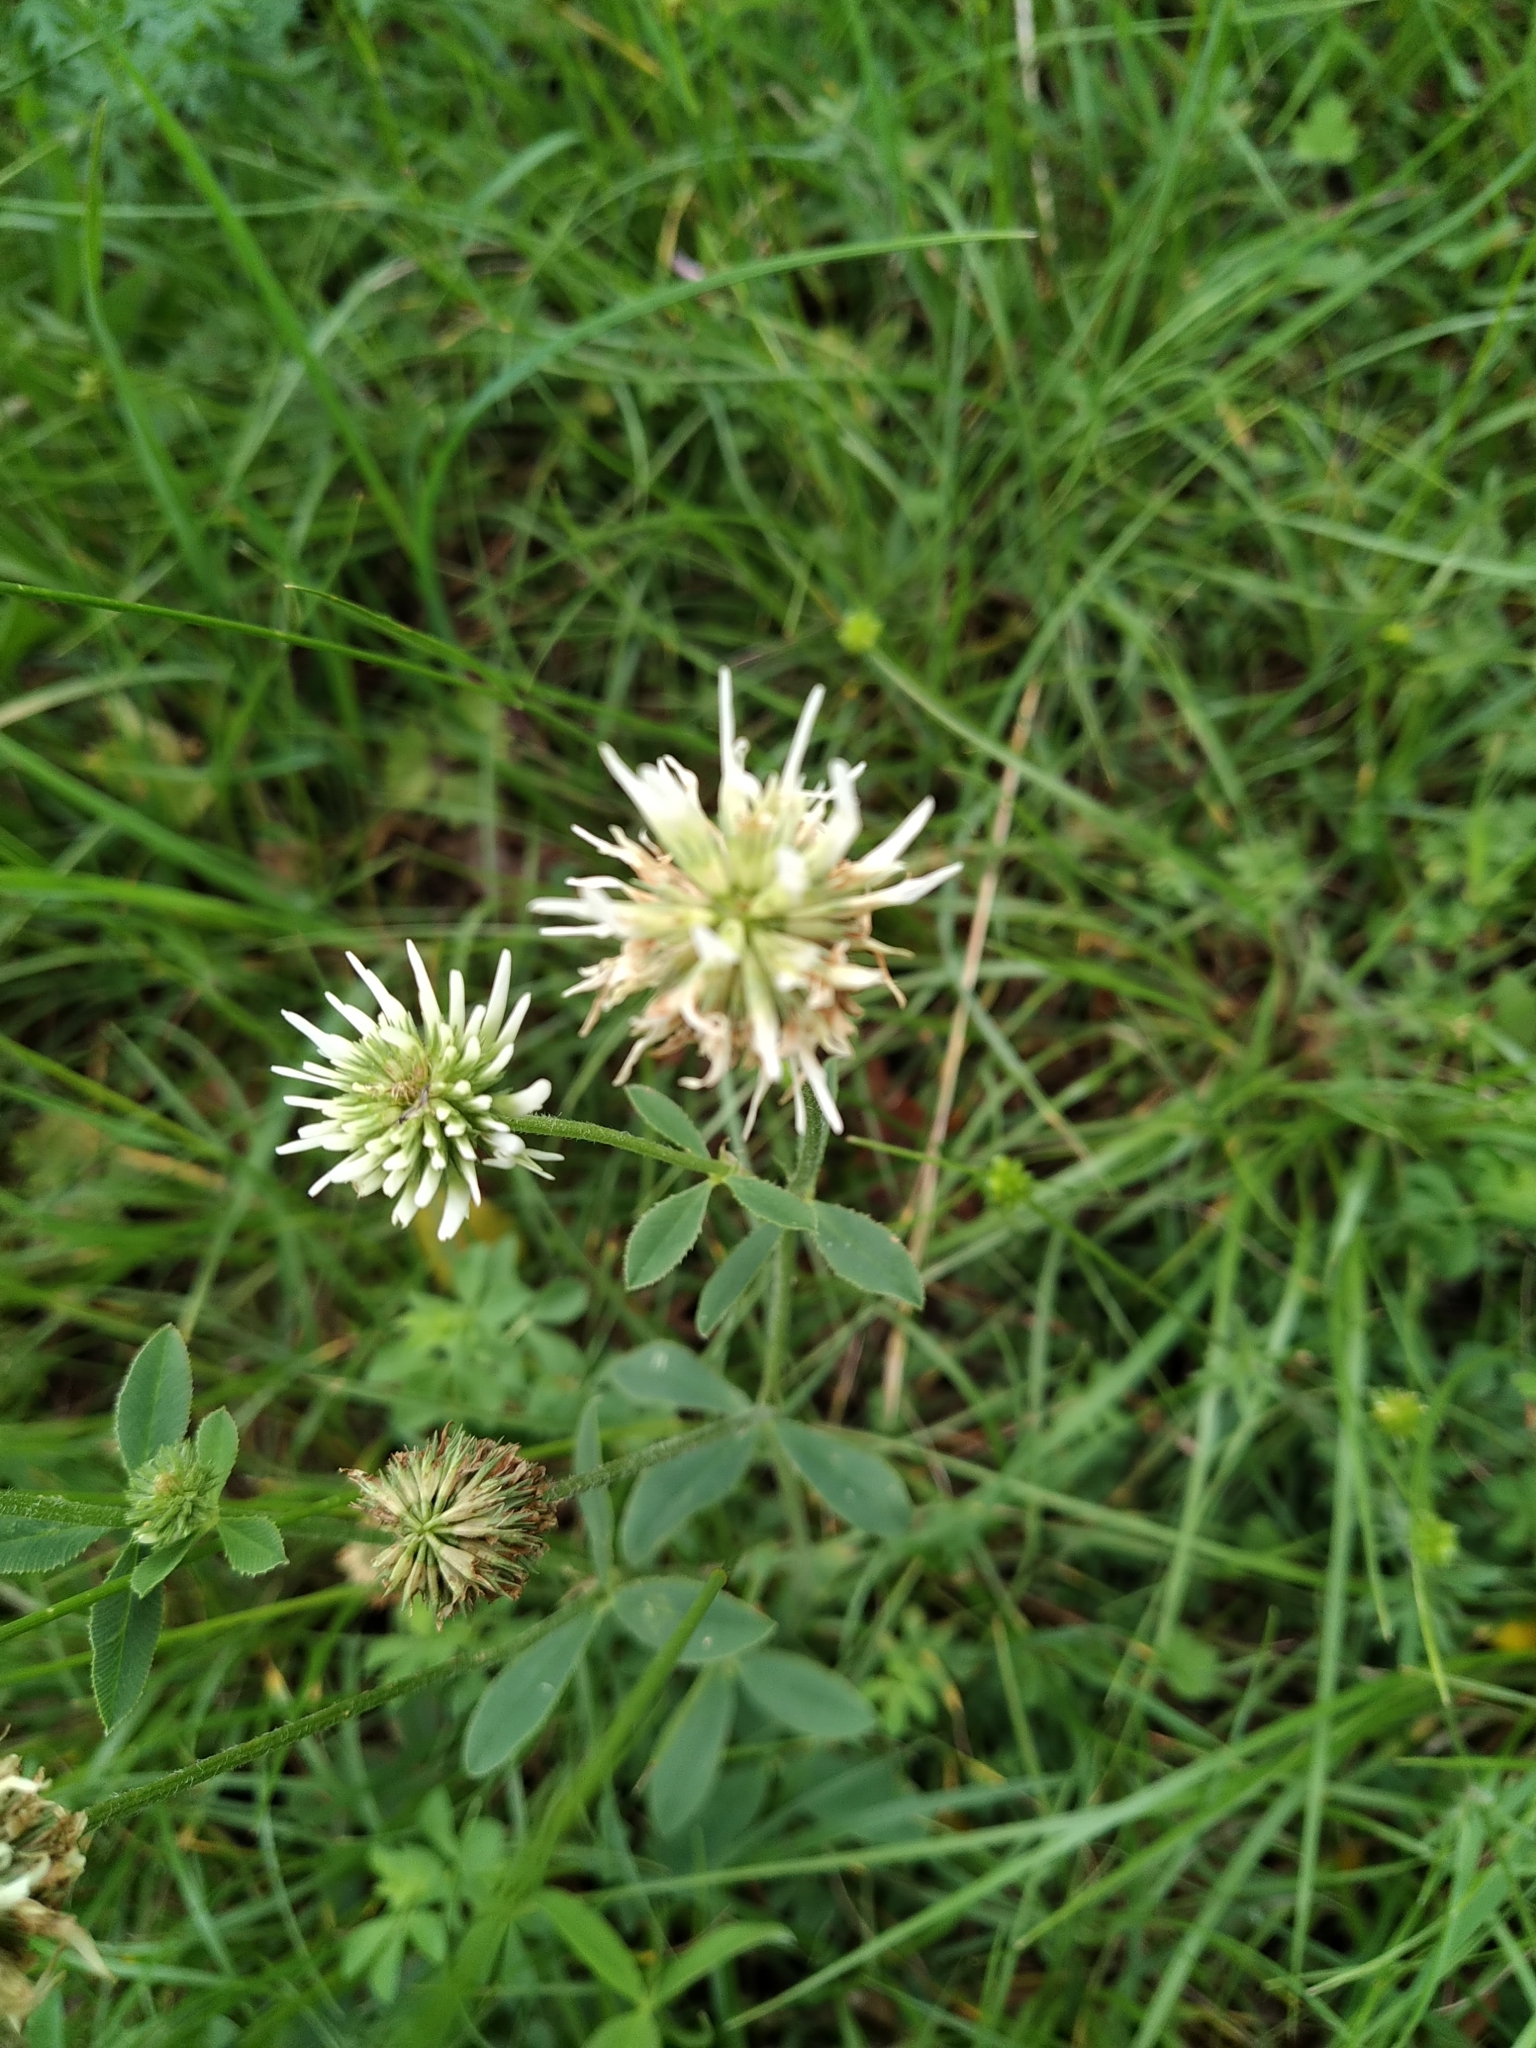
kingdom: Plantae
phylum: Tracheophyta
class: Magnoliopsida
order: Fabales
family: Fabaceae
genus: Trifolium
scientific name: Trifolium montanum
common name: Mountain clover
